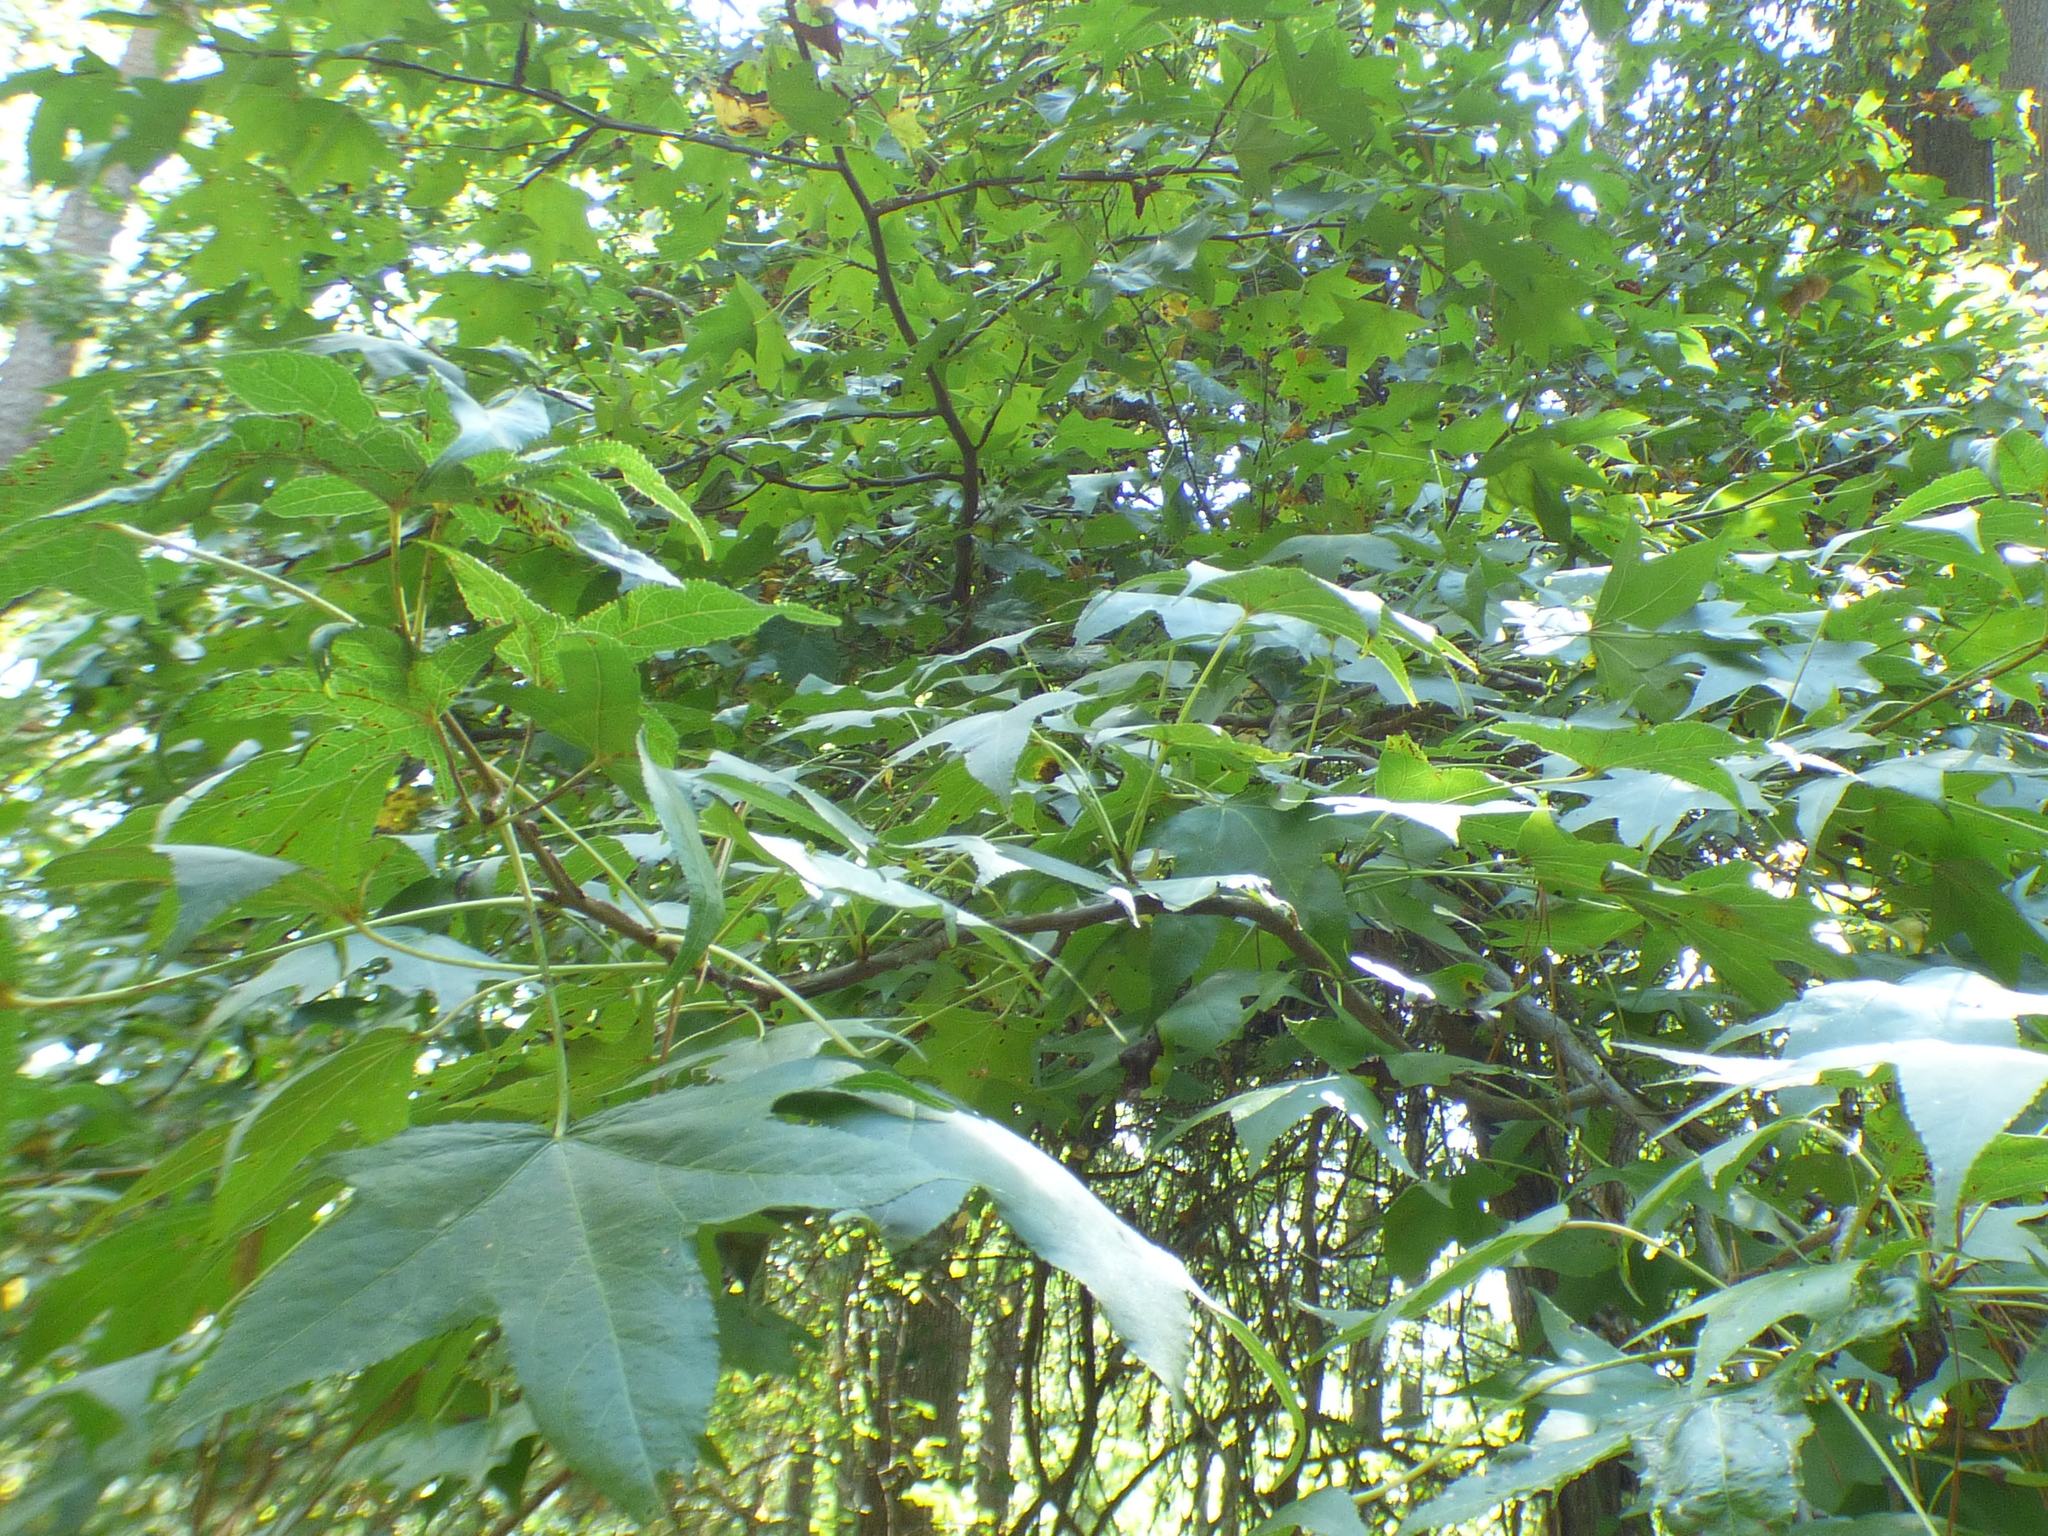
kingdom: Plantae
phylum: Tracheophyta
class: Magnoliopsida
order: Saxifragales
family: Altingiaceae
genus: Liquidambar
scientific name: Liquidambar styraciflua
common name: Sweet gum
